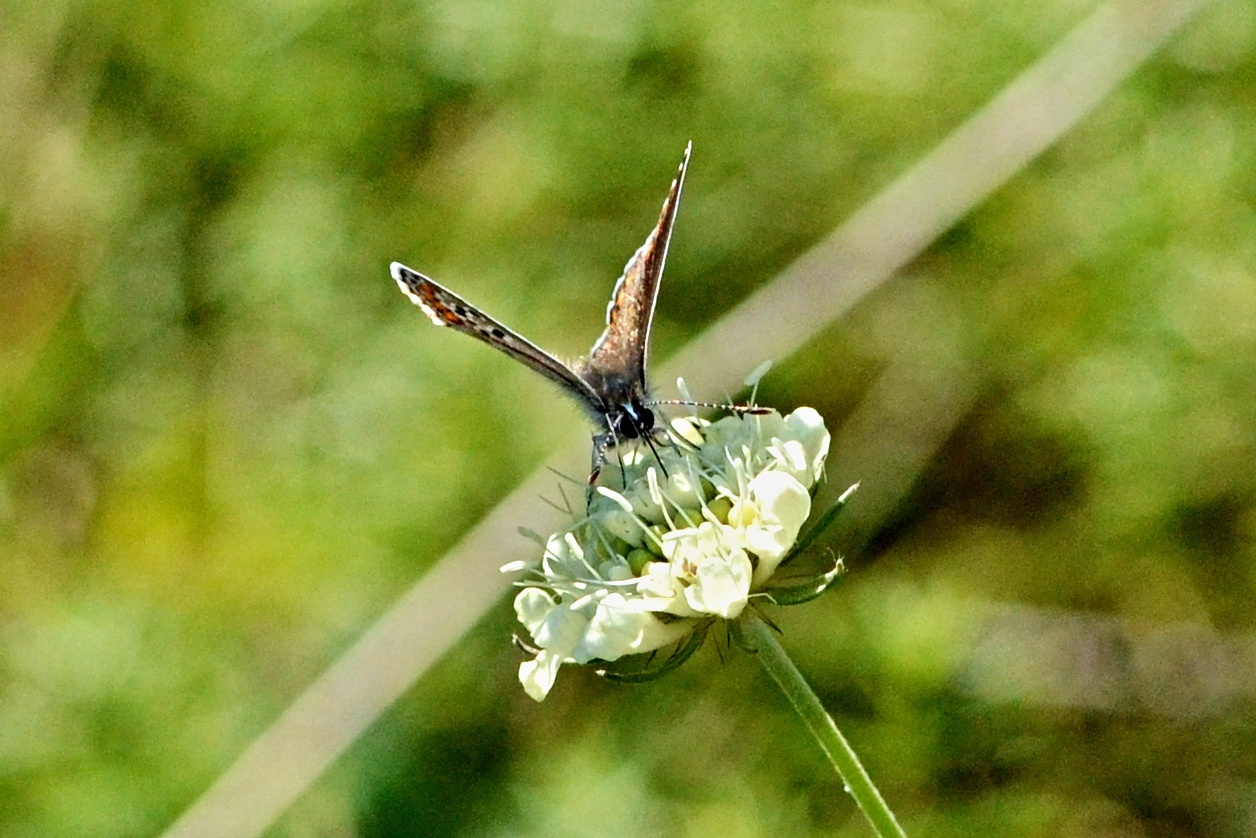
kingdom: Animalia
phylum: Arthropoda
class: Insecta
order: Lepidoptera
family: Lycaenidae
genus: Aricia
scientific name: Aricia agestis
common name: Brown argus
